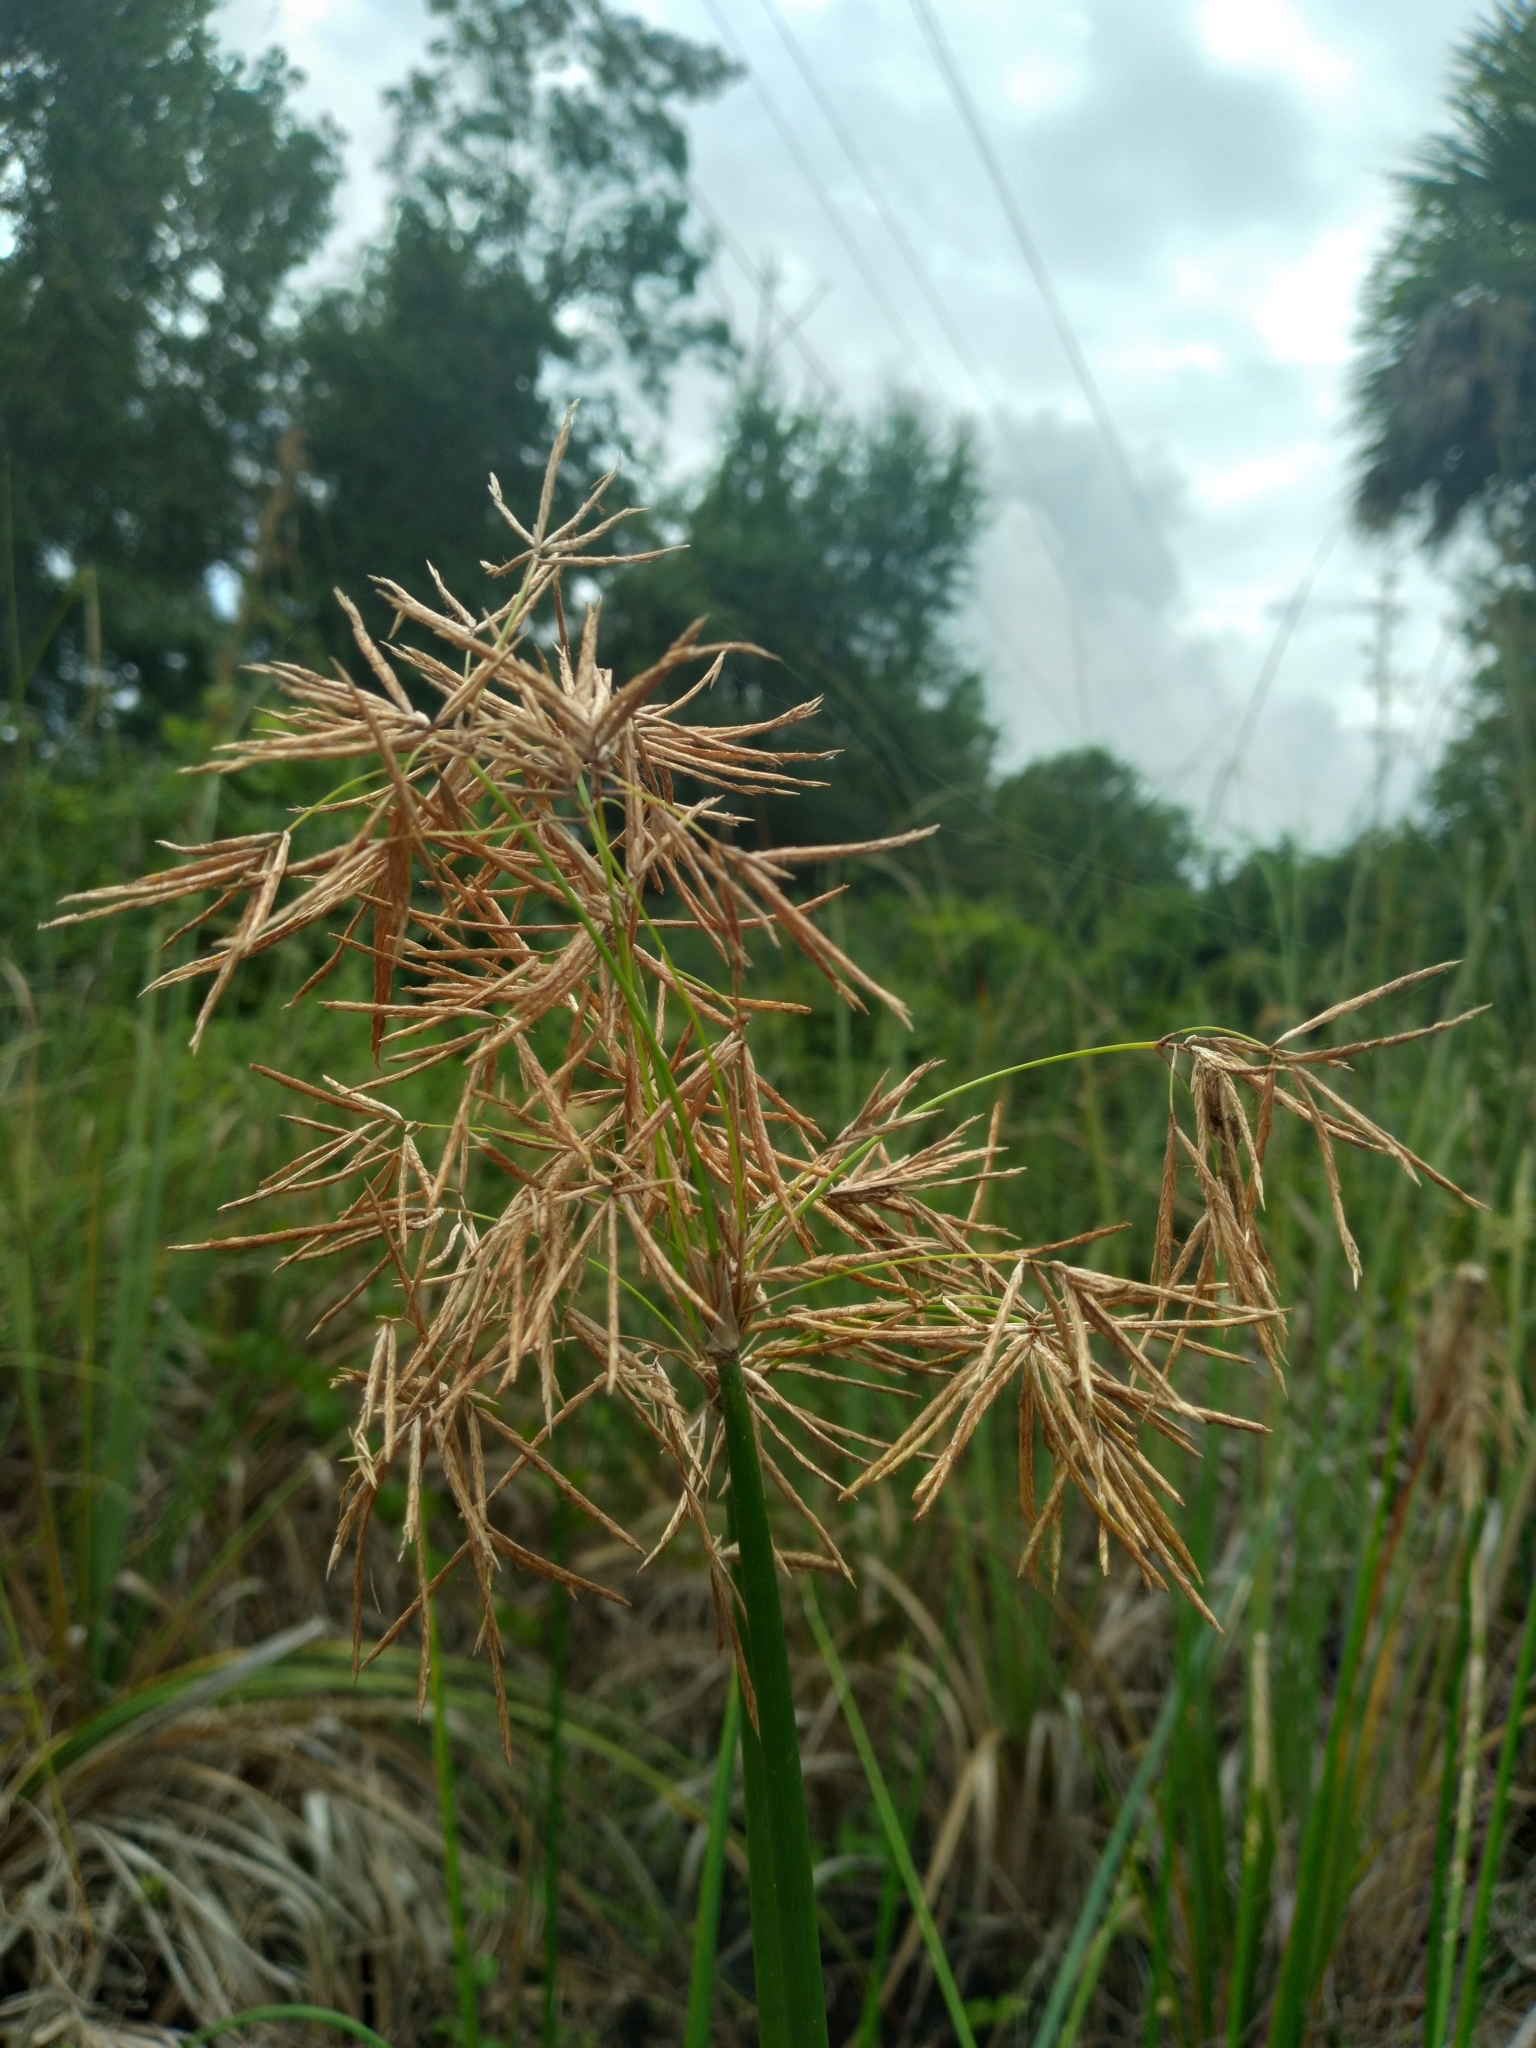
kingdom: Plantae
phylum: Tracheophyta
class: Liliopsida
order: Poales
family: Cyperaceae
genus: Cyperus
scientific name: Cyperus articulatus
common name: Jointed flatsedge
